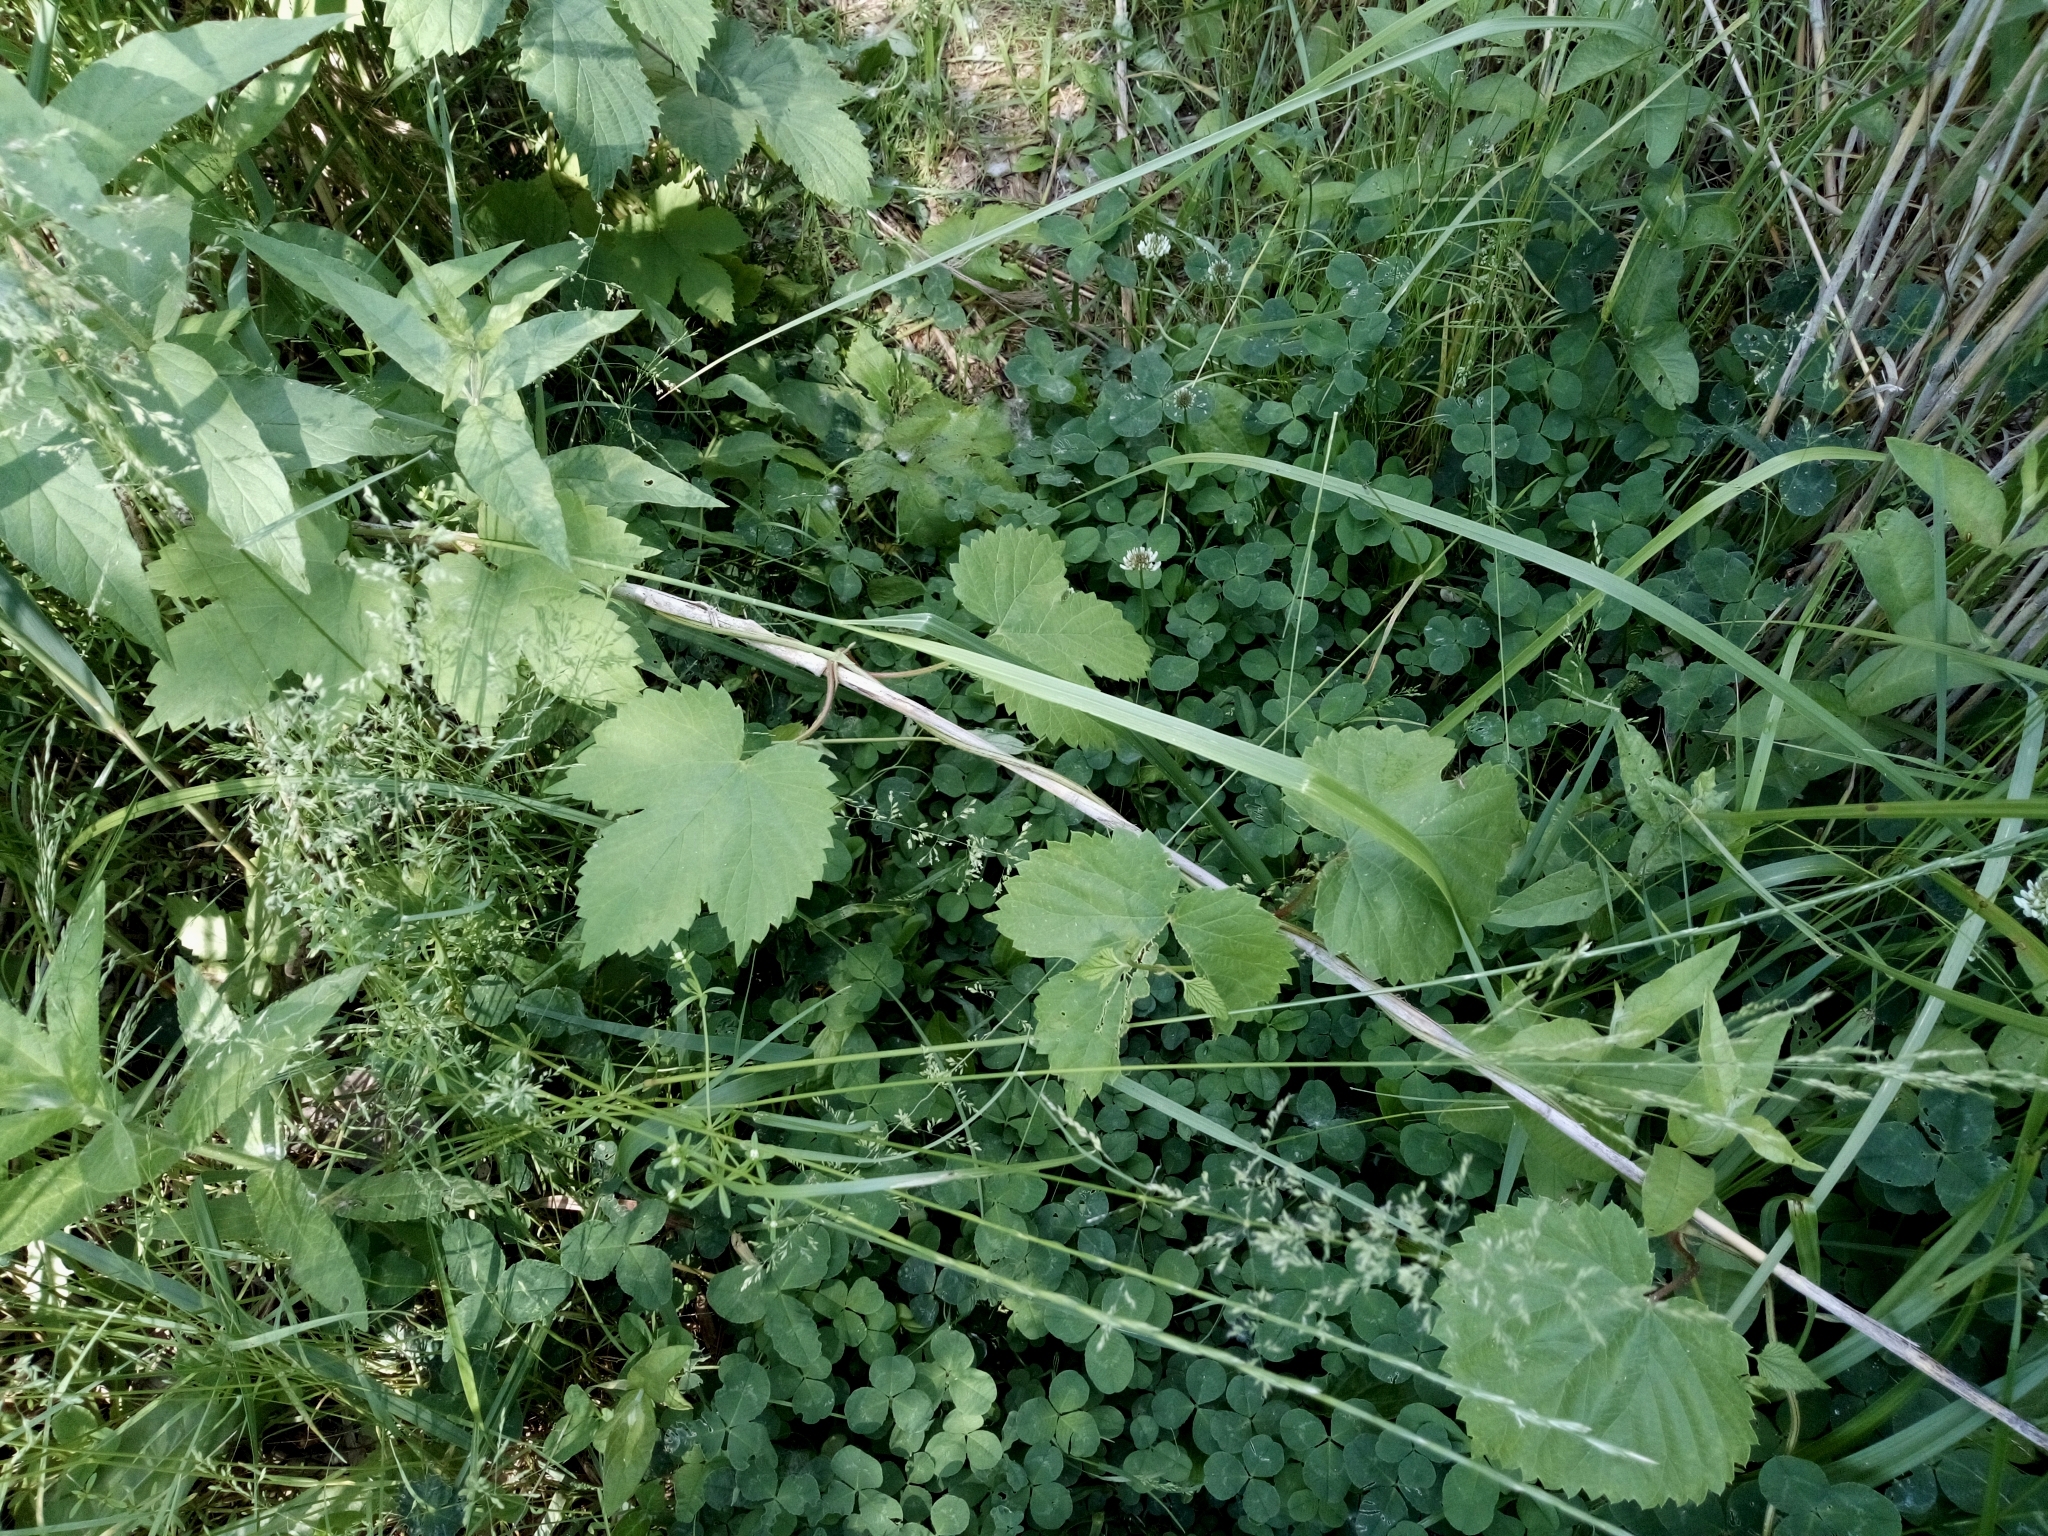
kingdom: Plantae
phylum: Tracheophyta
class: Magnoliopsida
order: Rosales
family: Cannabaceae
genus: Humulus
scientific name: Humulus lupulus
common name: Hop
